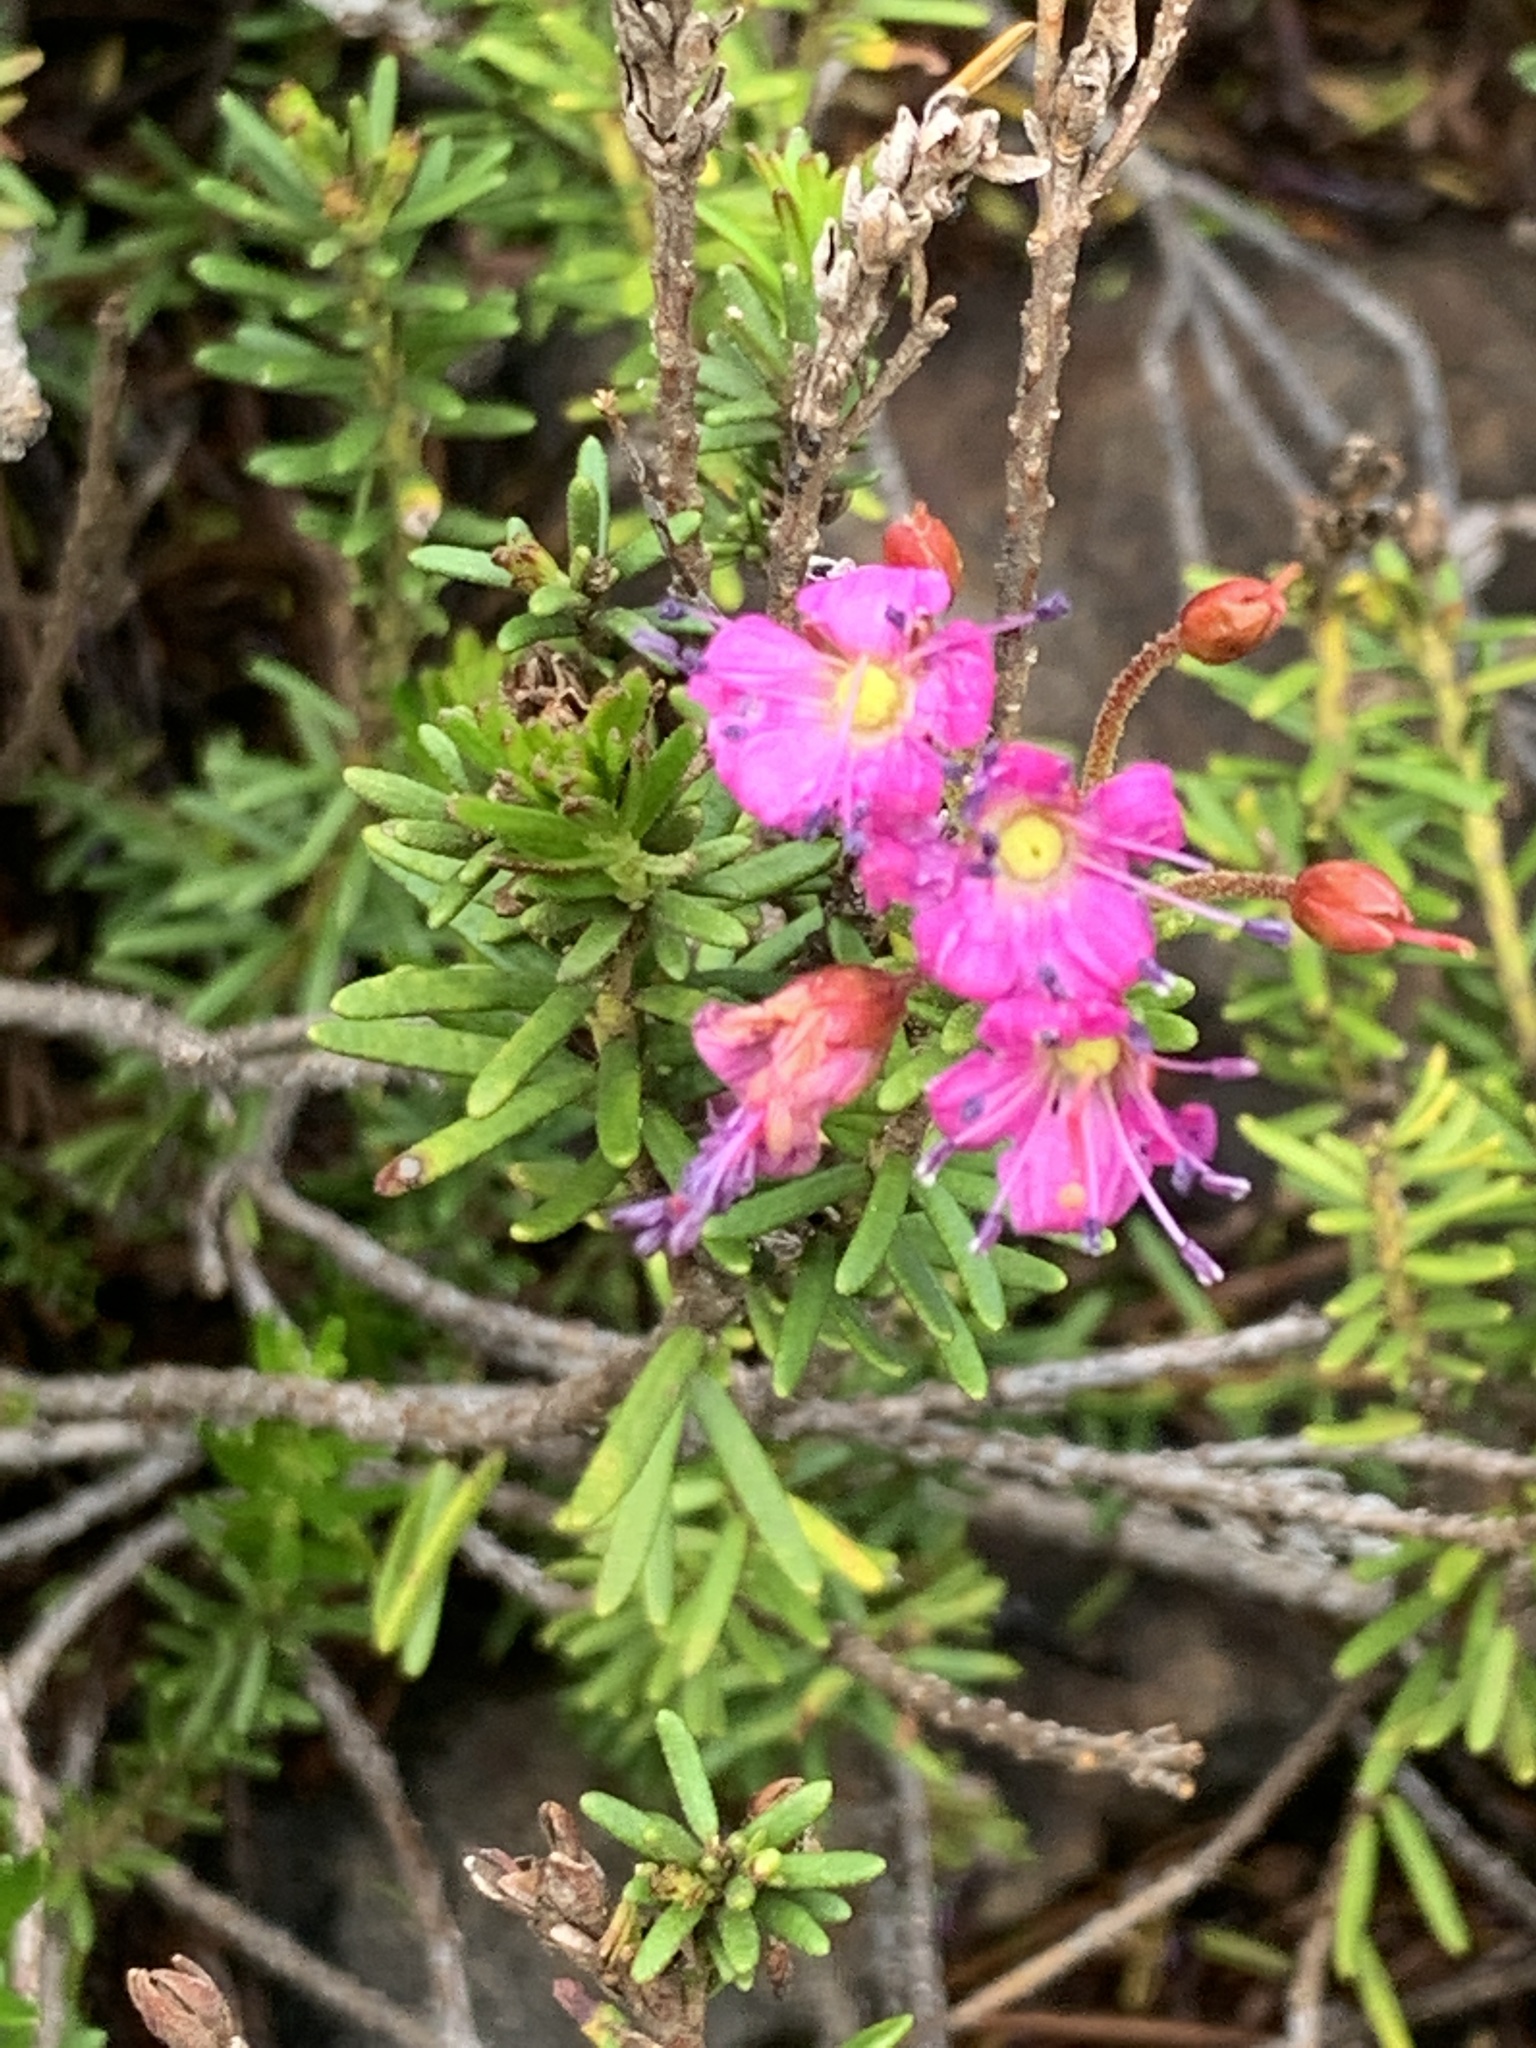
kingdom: Plantae
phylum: Tracheophyta
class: Magnoliopsida
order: Ericales
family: Ericaceae
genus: Phyllodoce
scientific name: Phyllodoce breweri
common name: Brewer's mountain-heather
